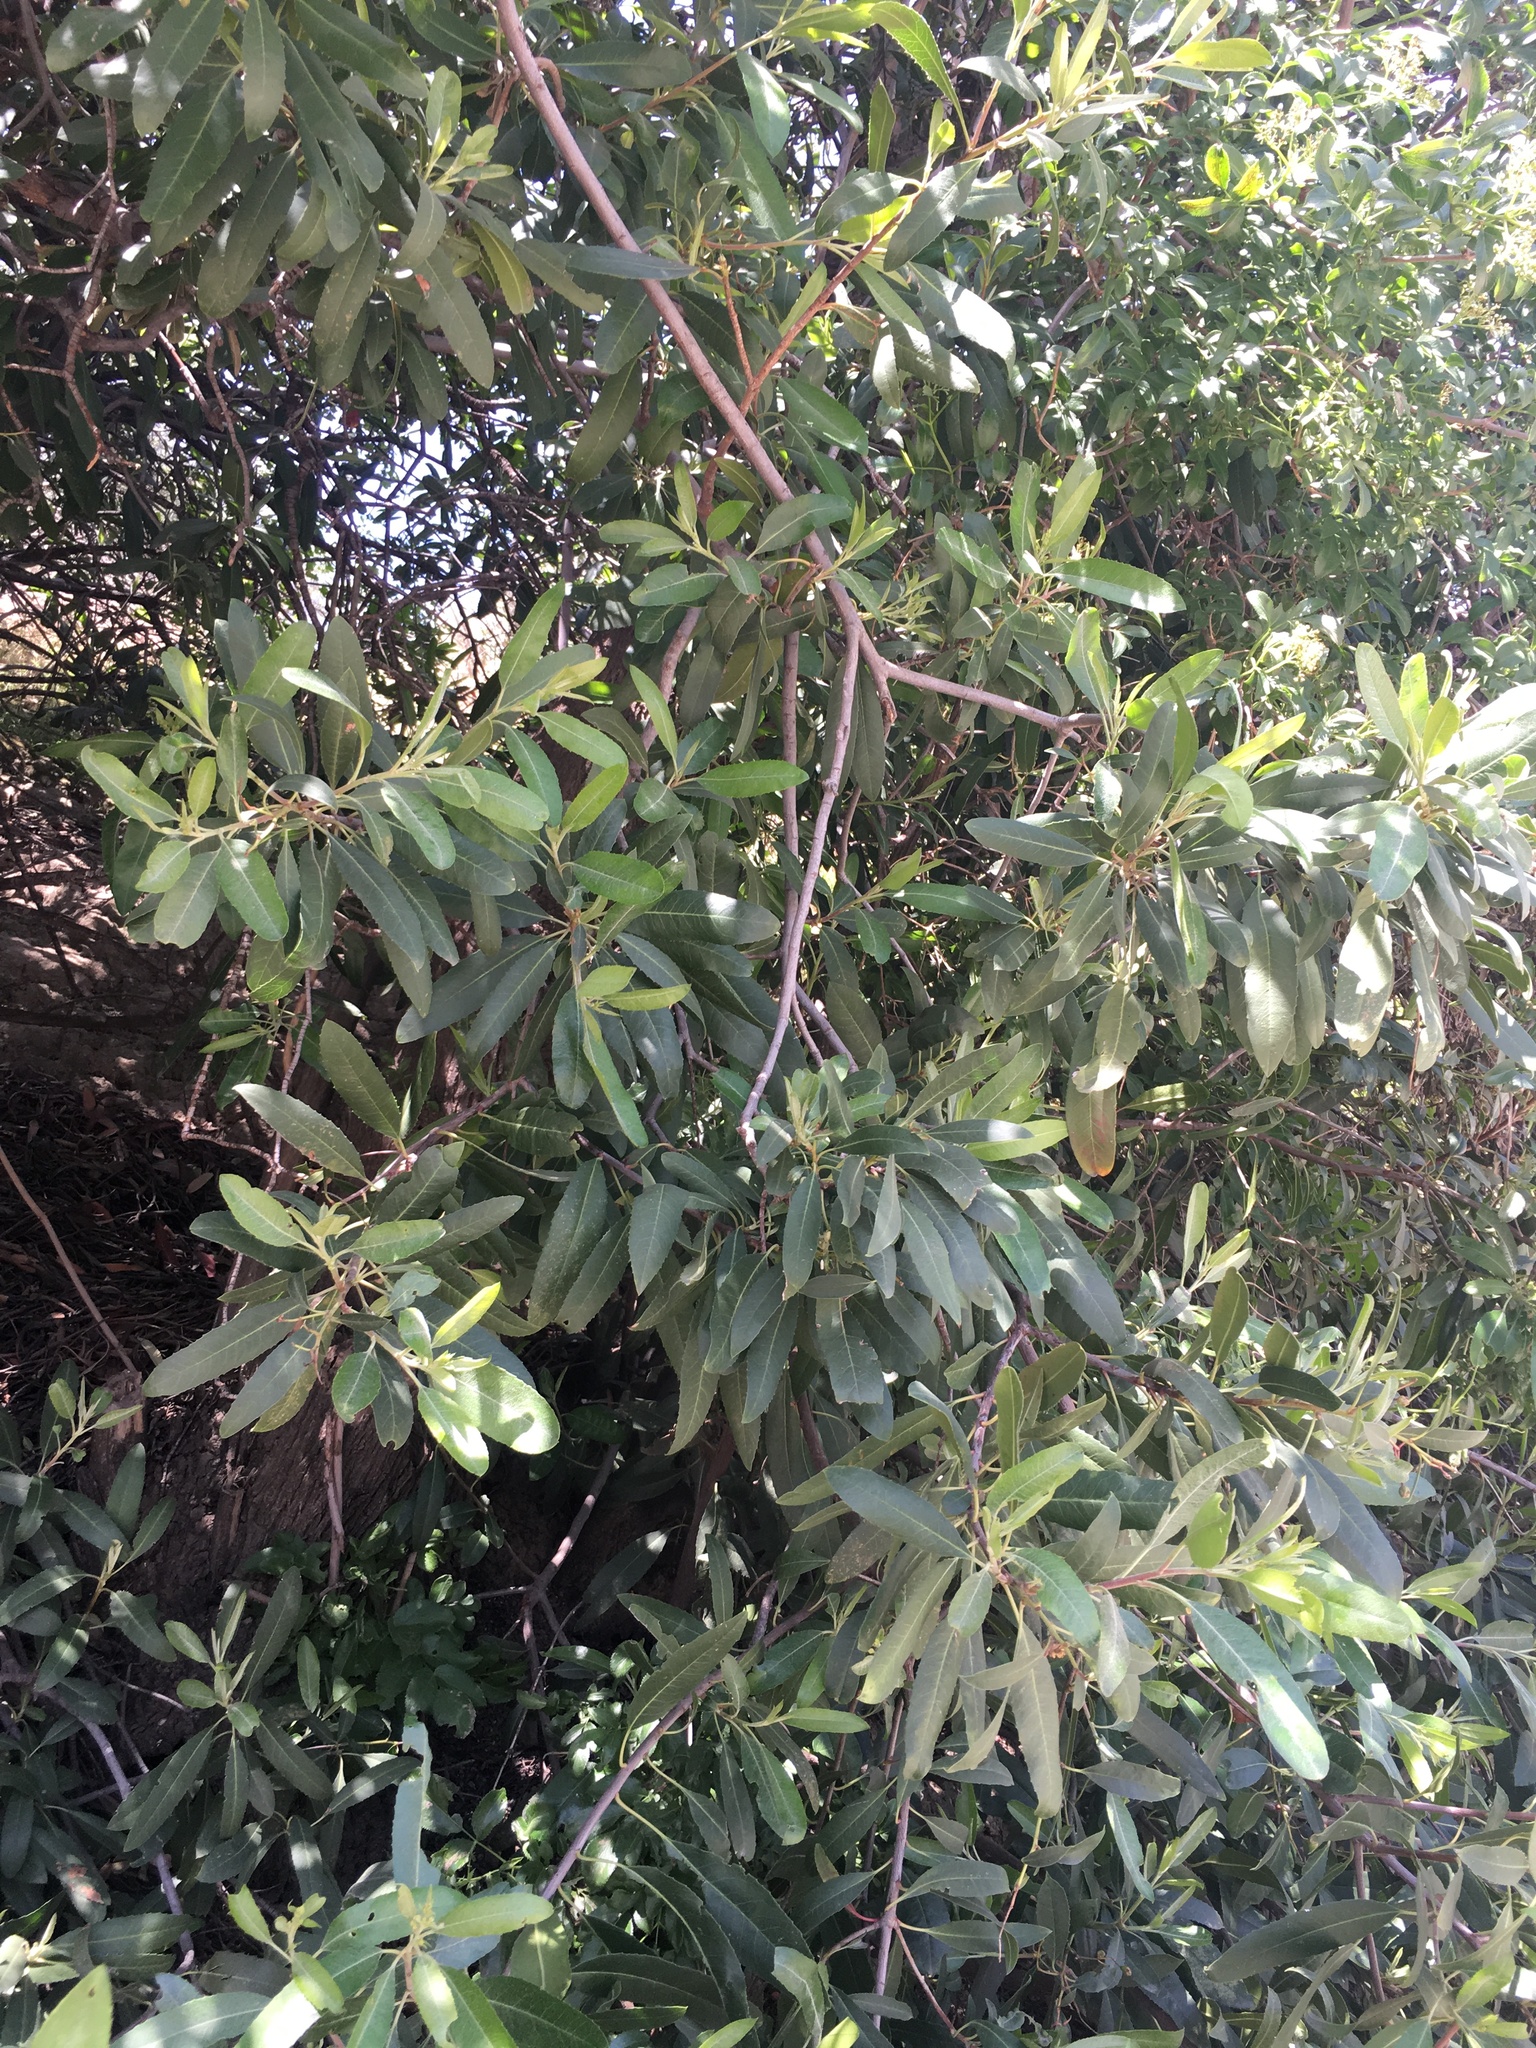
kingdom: Plantae
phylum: Tracheophyta
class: Magnoliopsida
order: Boraginales
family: Hydrophyllaceae
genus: Eucrypta
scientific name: Eucrypta chrysanthemifolia
